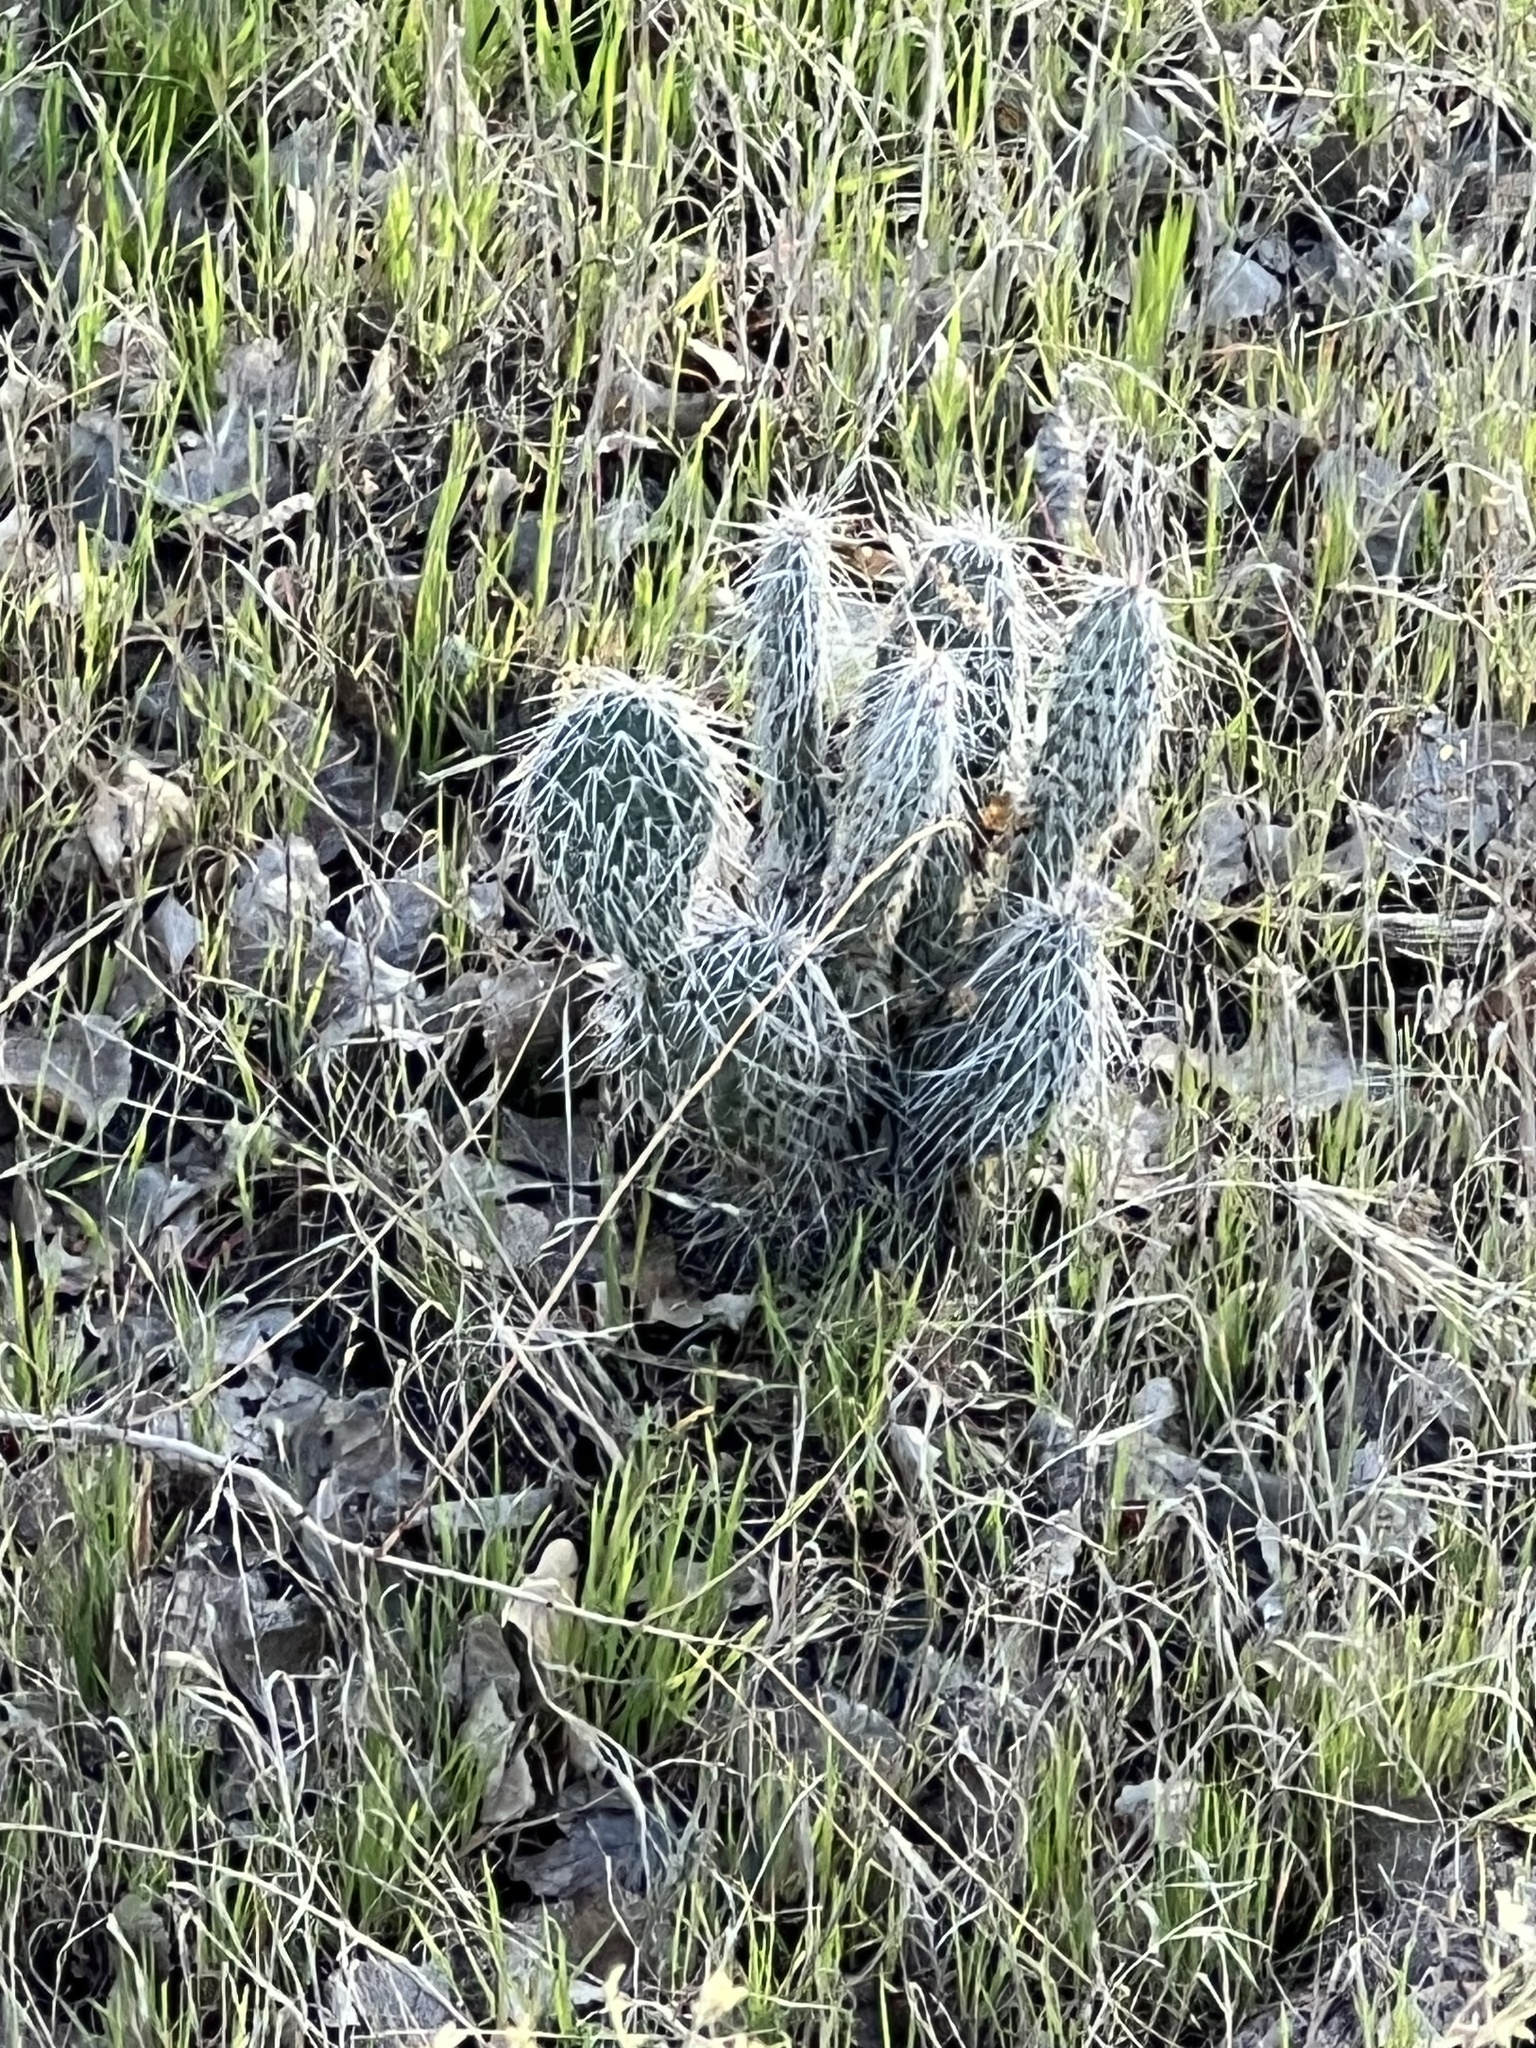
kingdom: Plantae
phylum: Tracheophyta
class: Magnoliopsida
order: Caryophyllales
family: Cactaceae
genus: Opuntia
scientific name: Opuntia polyacantha
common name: Plains prickly-pear
